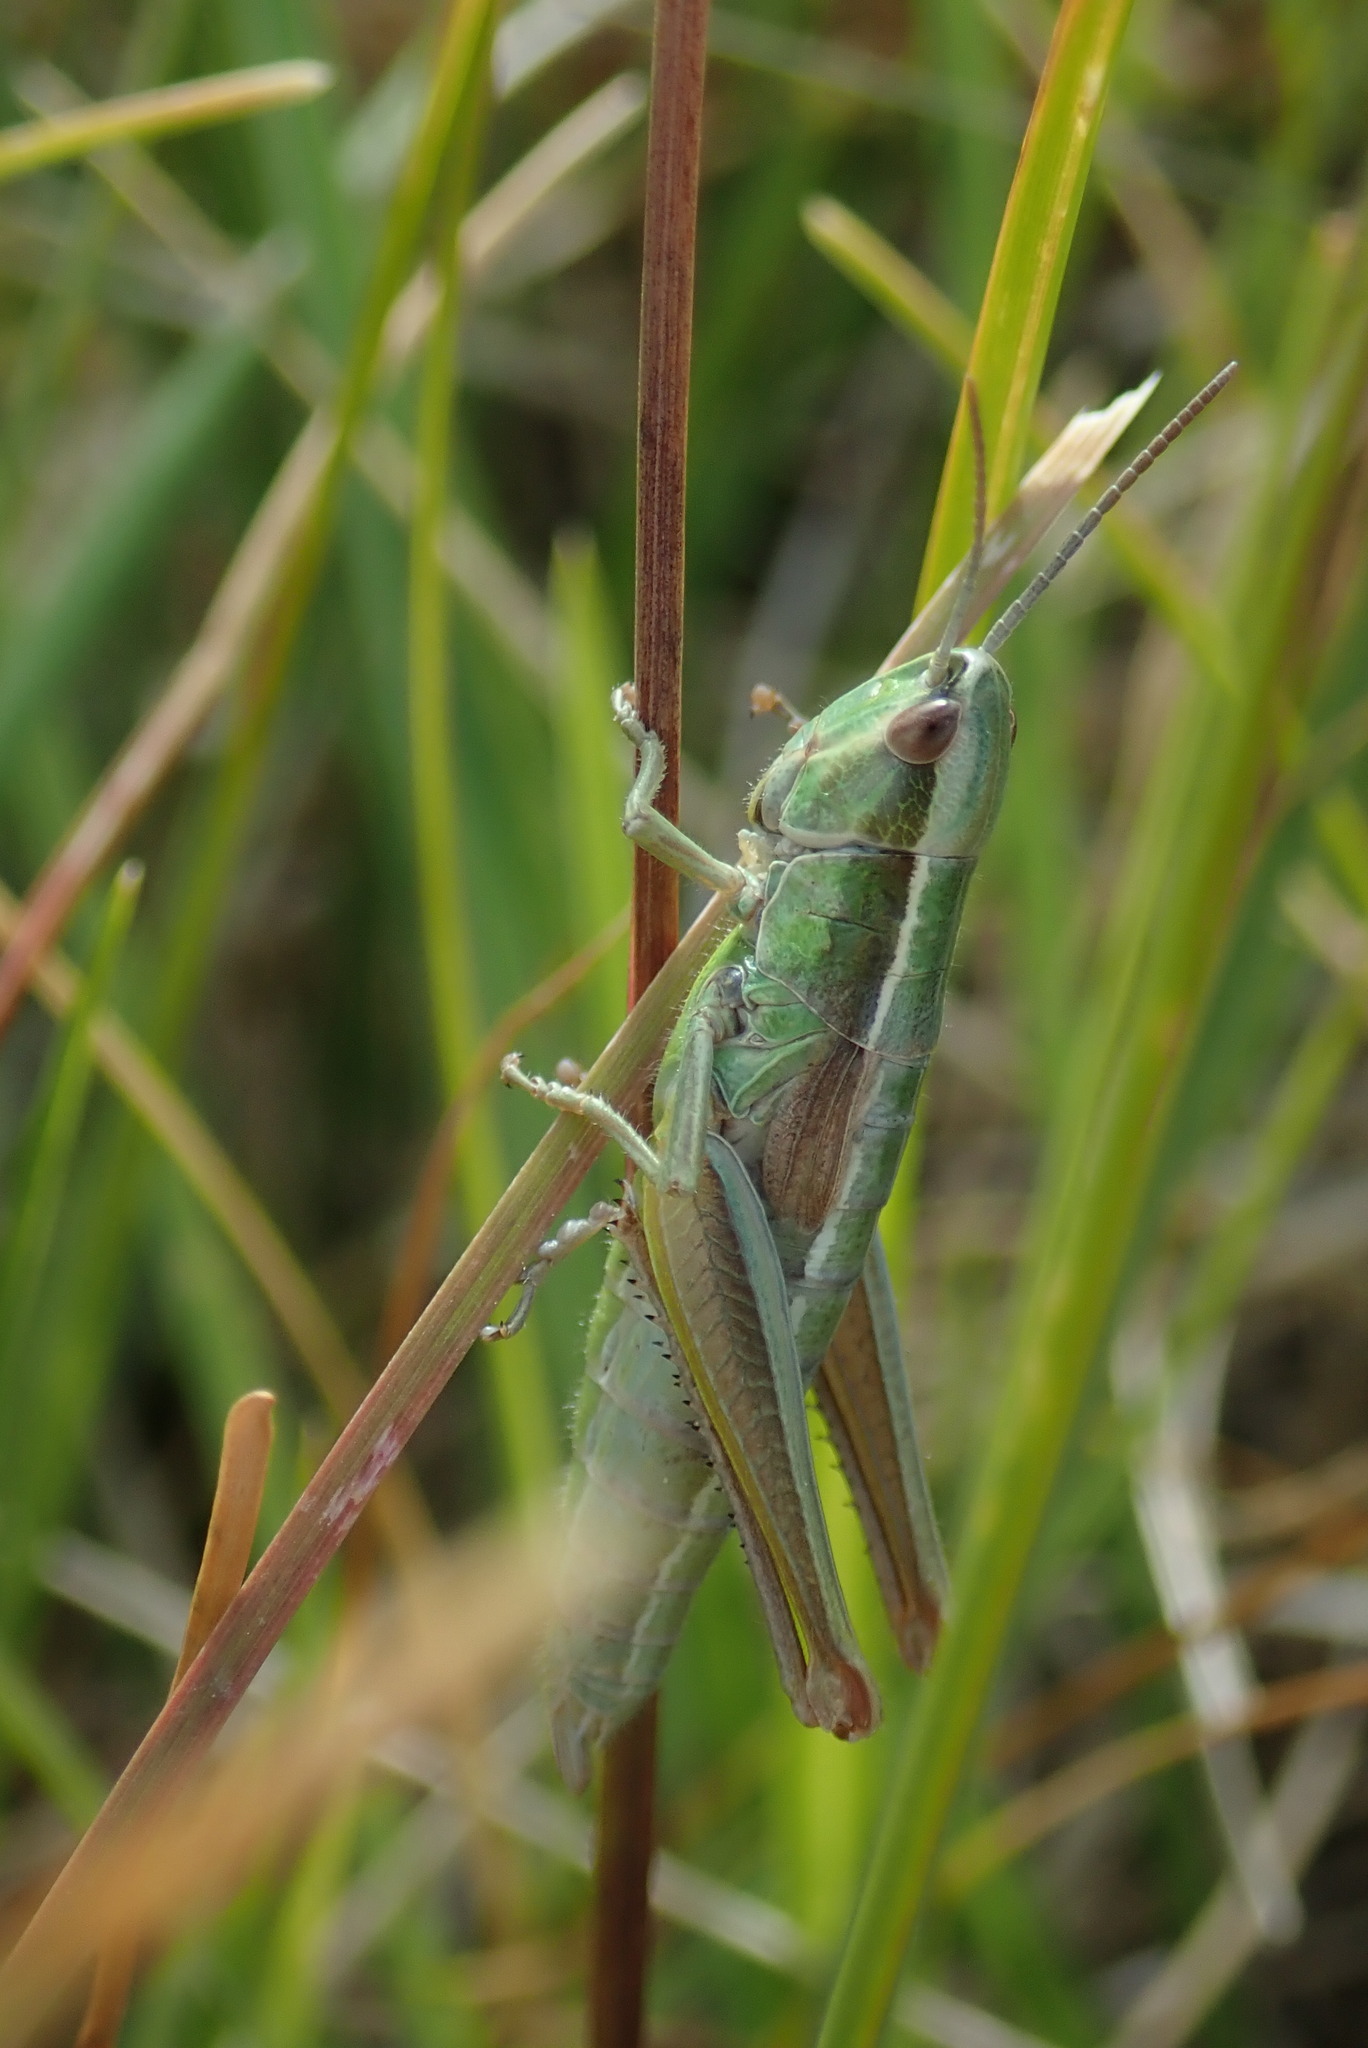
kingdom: Animalia
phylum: Arthropoda
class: Insecta
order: Orthoptera
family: Acrididae
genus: Euthystira
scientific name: Euthystira brachyptera
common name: Small gold grasshopper
